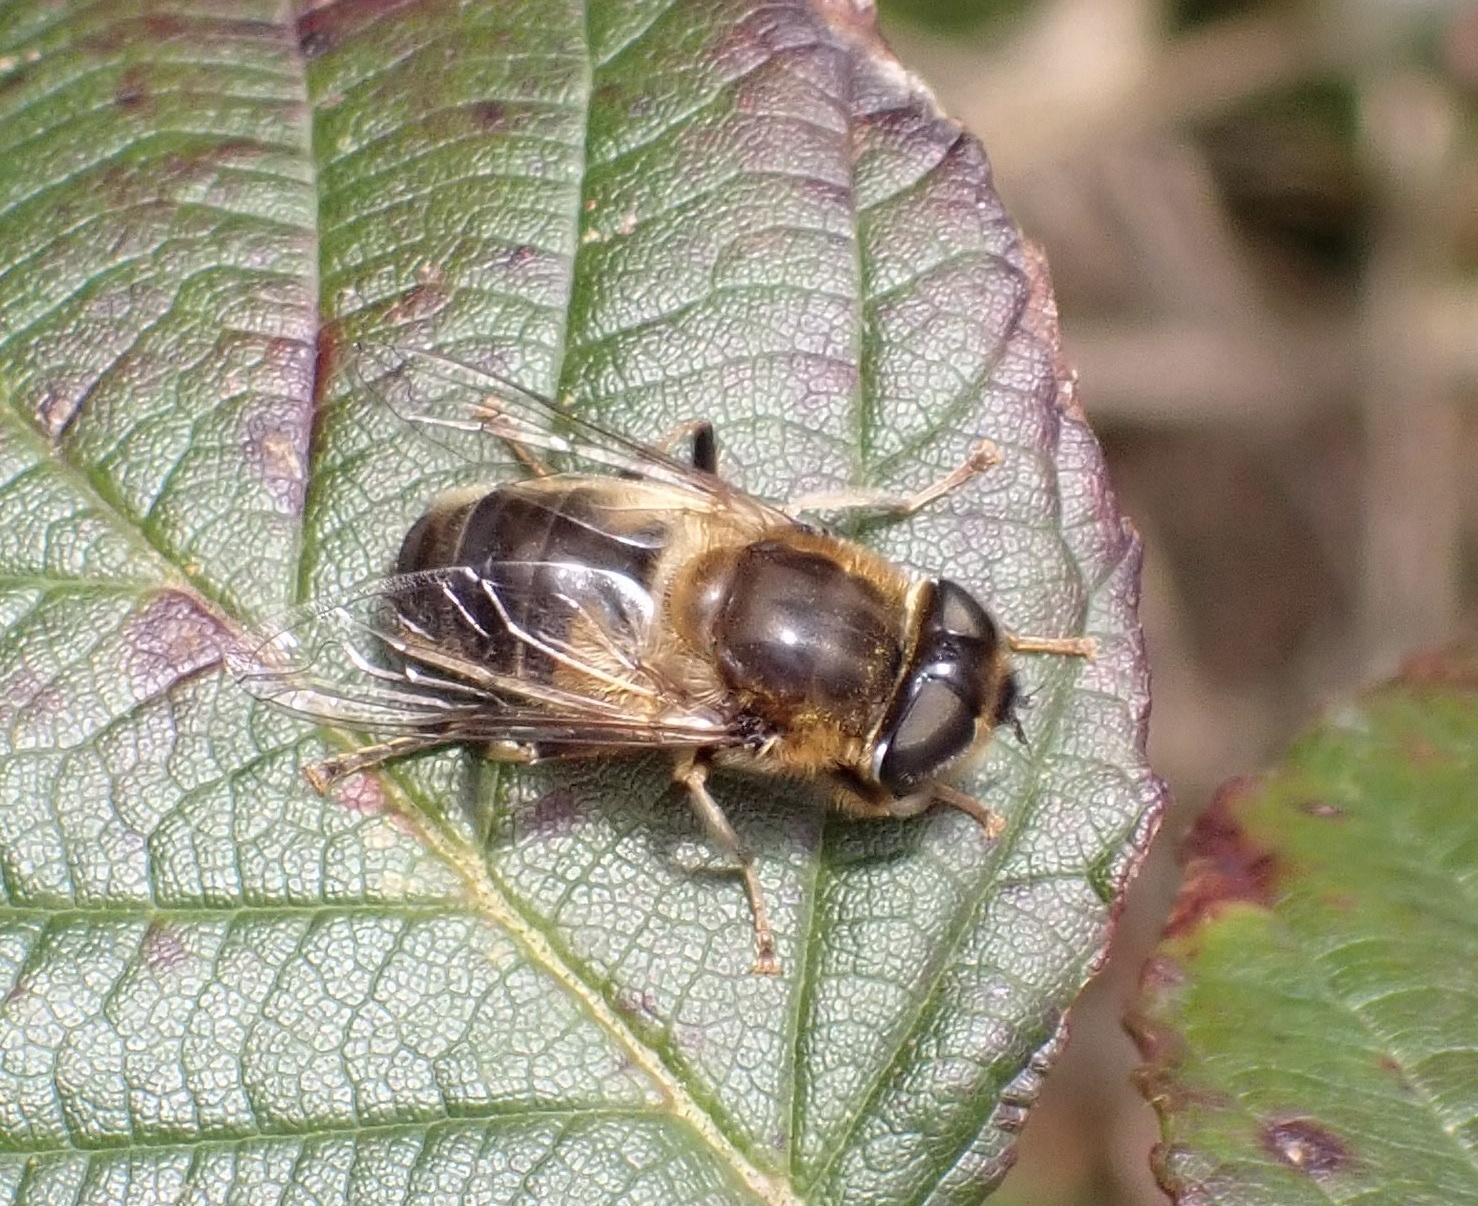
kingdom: Animalia
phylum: Arthropoda
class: Insecta
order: Diptera
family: Syrphidae
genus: Eristalis
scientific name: Eristalis pertinax
